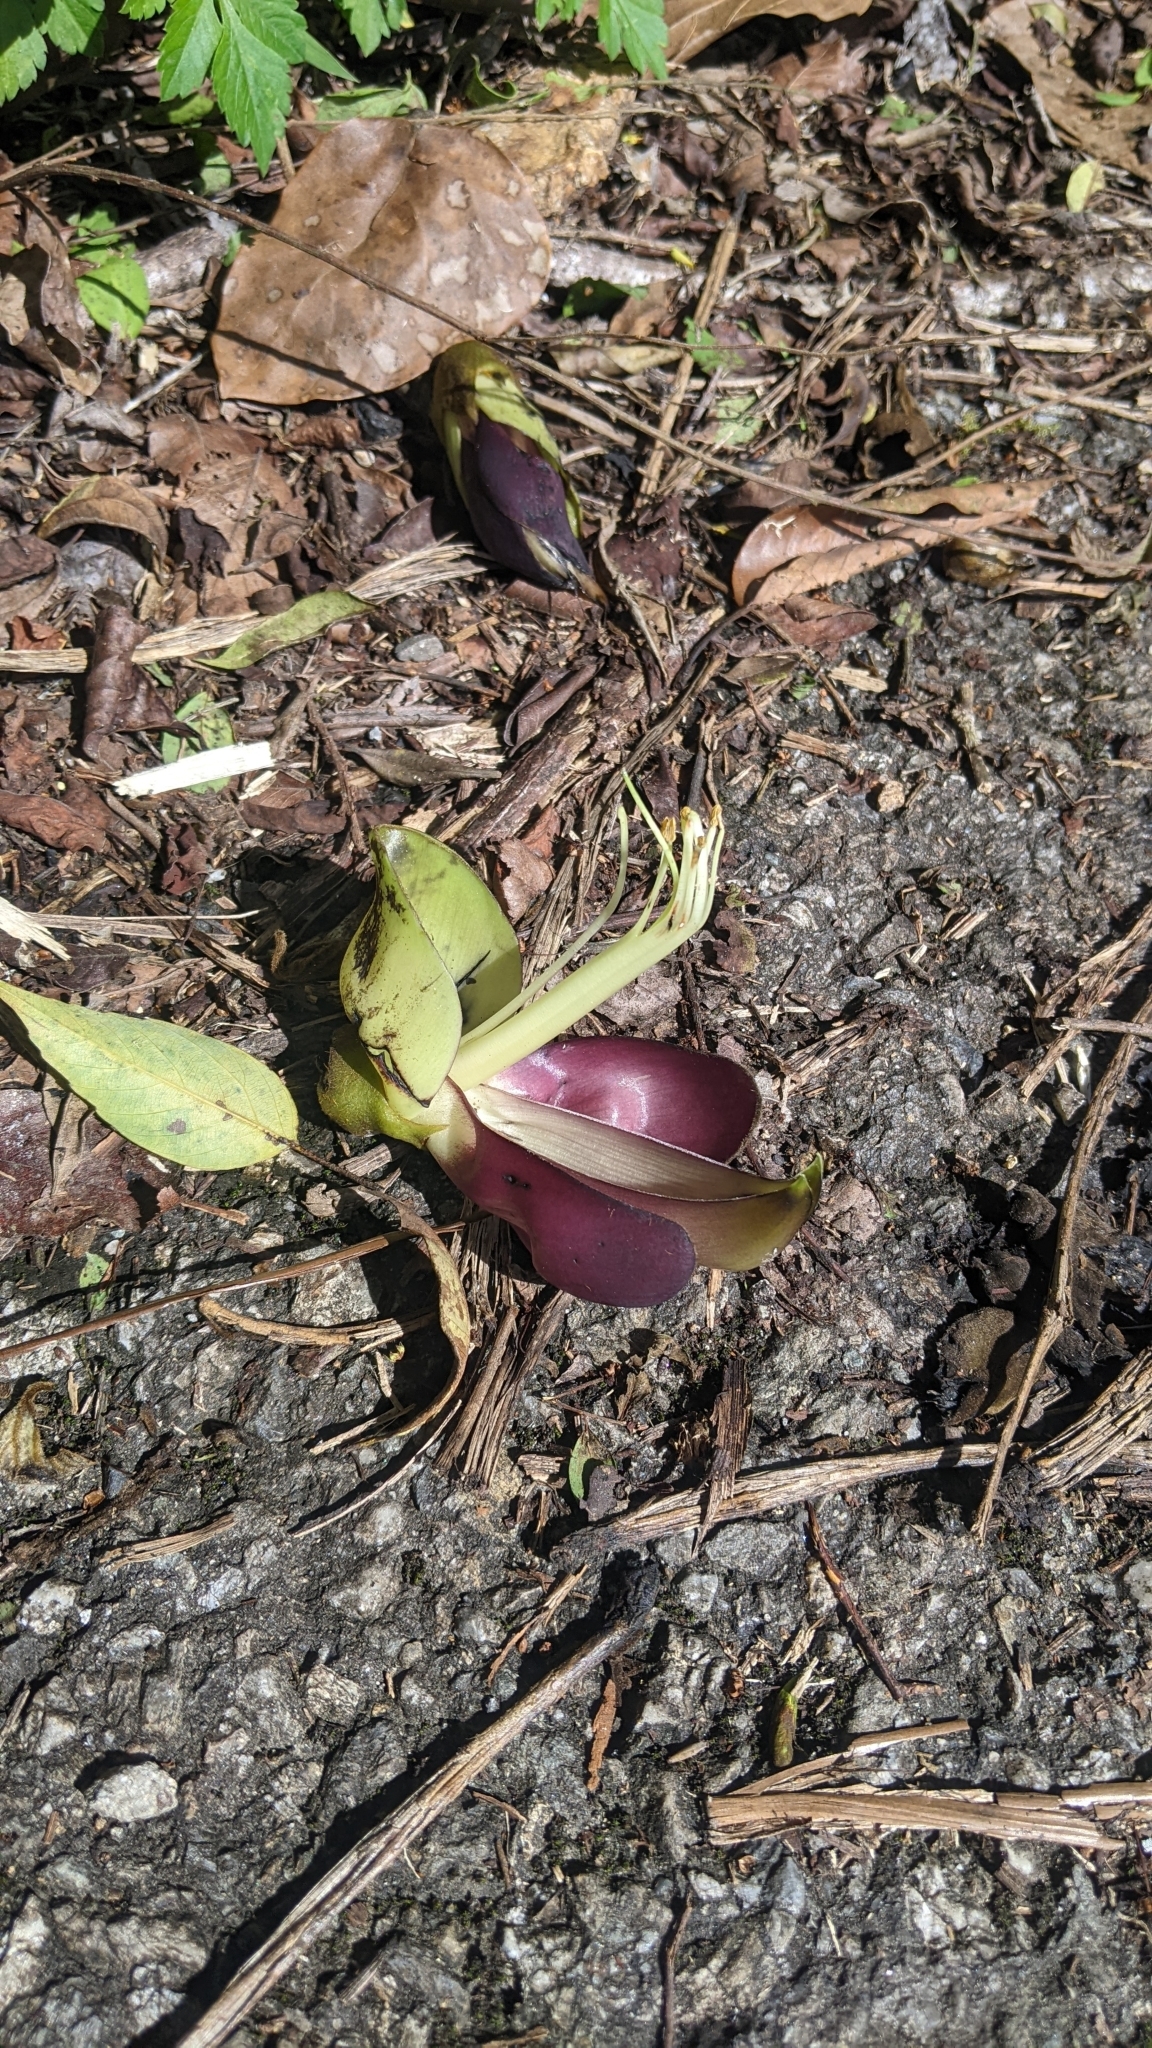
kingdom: Plantae
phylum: Tracheophyta
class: Magnoliopsida
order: Fabales
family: Fabaceae
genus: Mucuna
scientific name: Mucuna macrocarpa
